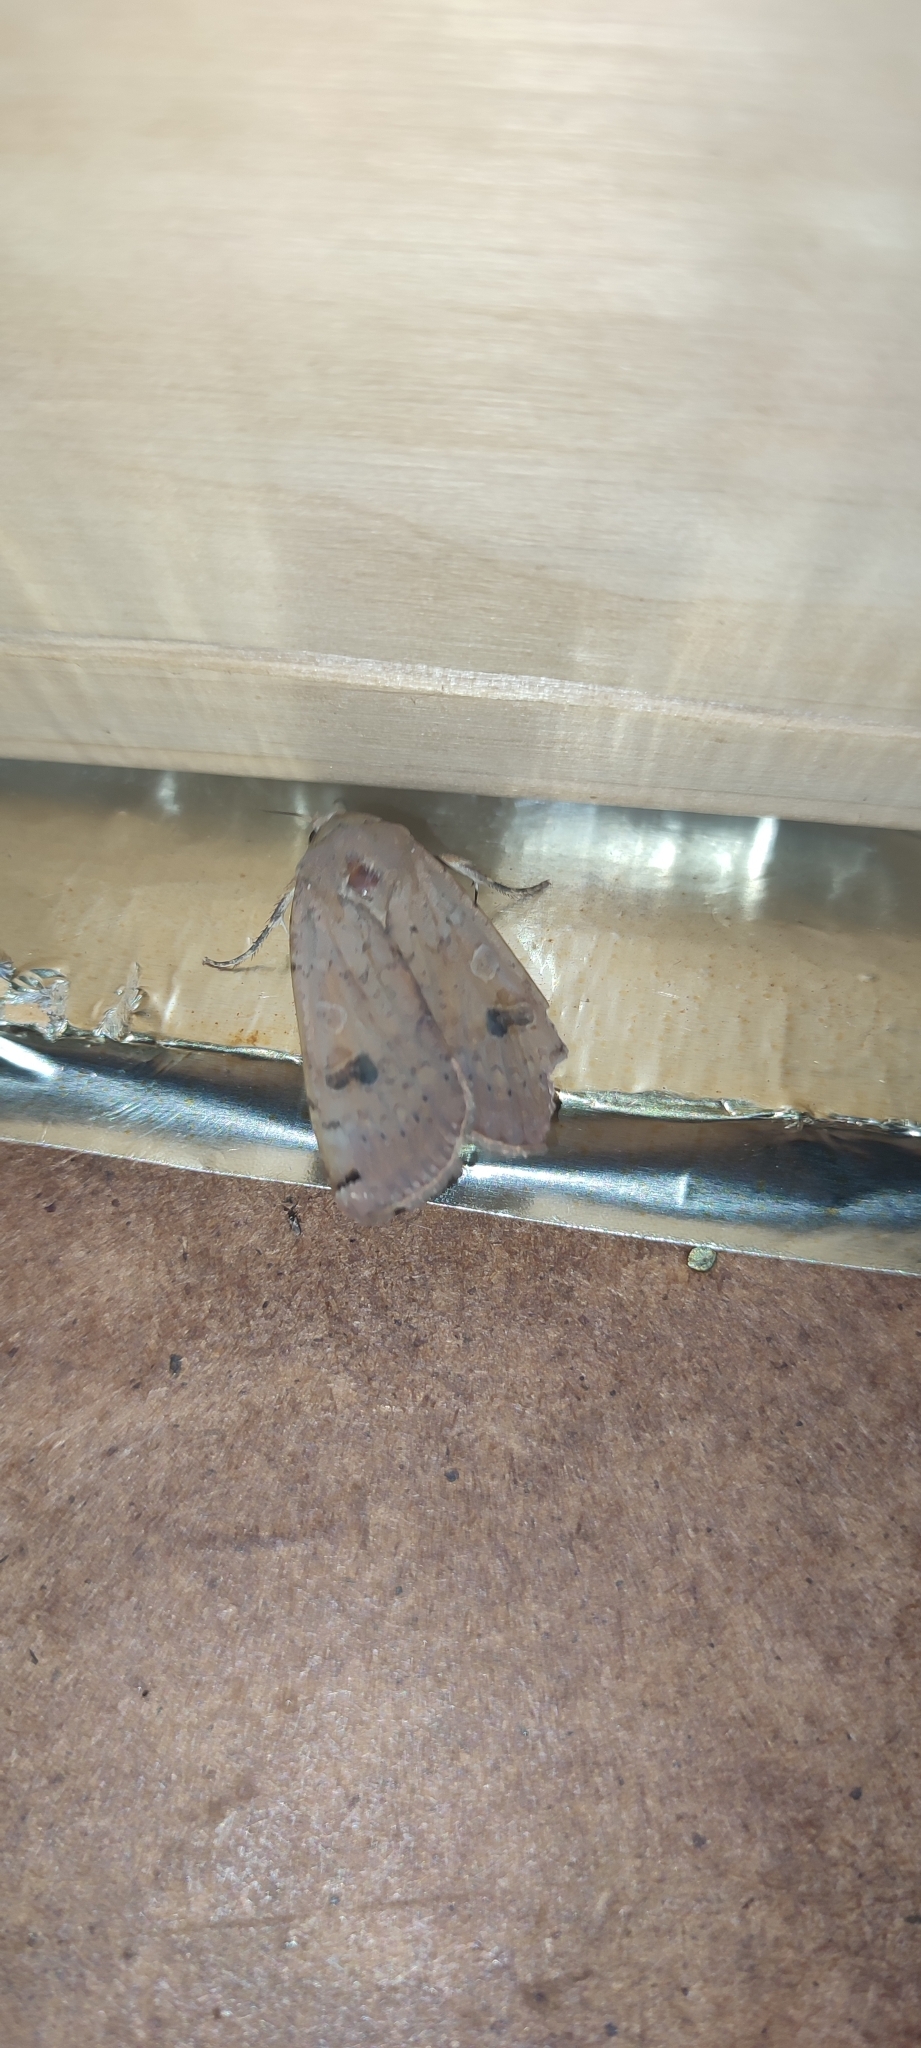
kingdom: Animalia
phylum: Arthropoda
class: Insecta
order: Lepidoptera
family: Noctuidae
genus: Noctua
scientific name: Noctua pronuba
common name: Large yellow underwing
